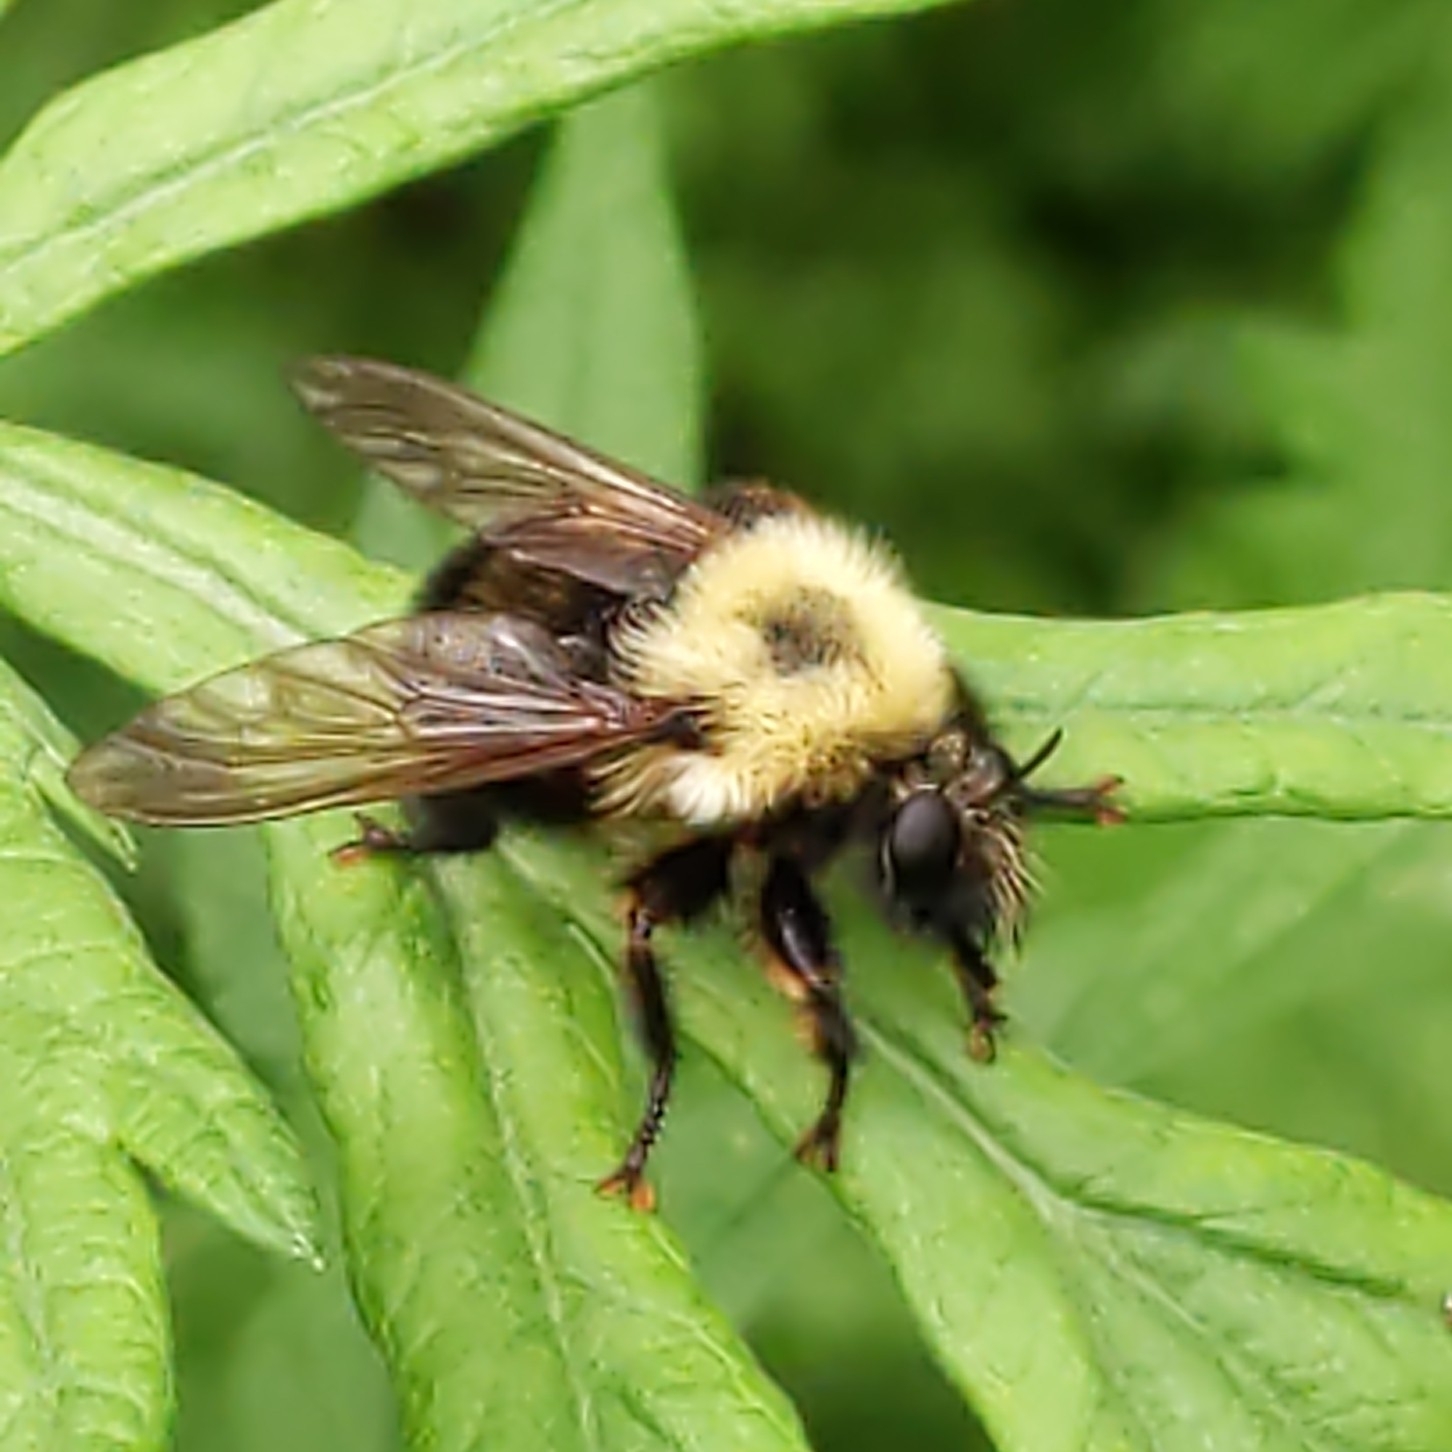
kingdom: Animalia
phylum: Arthropoda
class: Insecta
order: Diptera
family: Asilidae
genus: Laphria
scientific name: Laphria thoracica
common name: Bumble bee mimic robber fly
